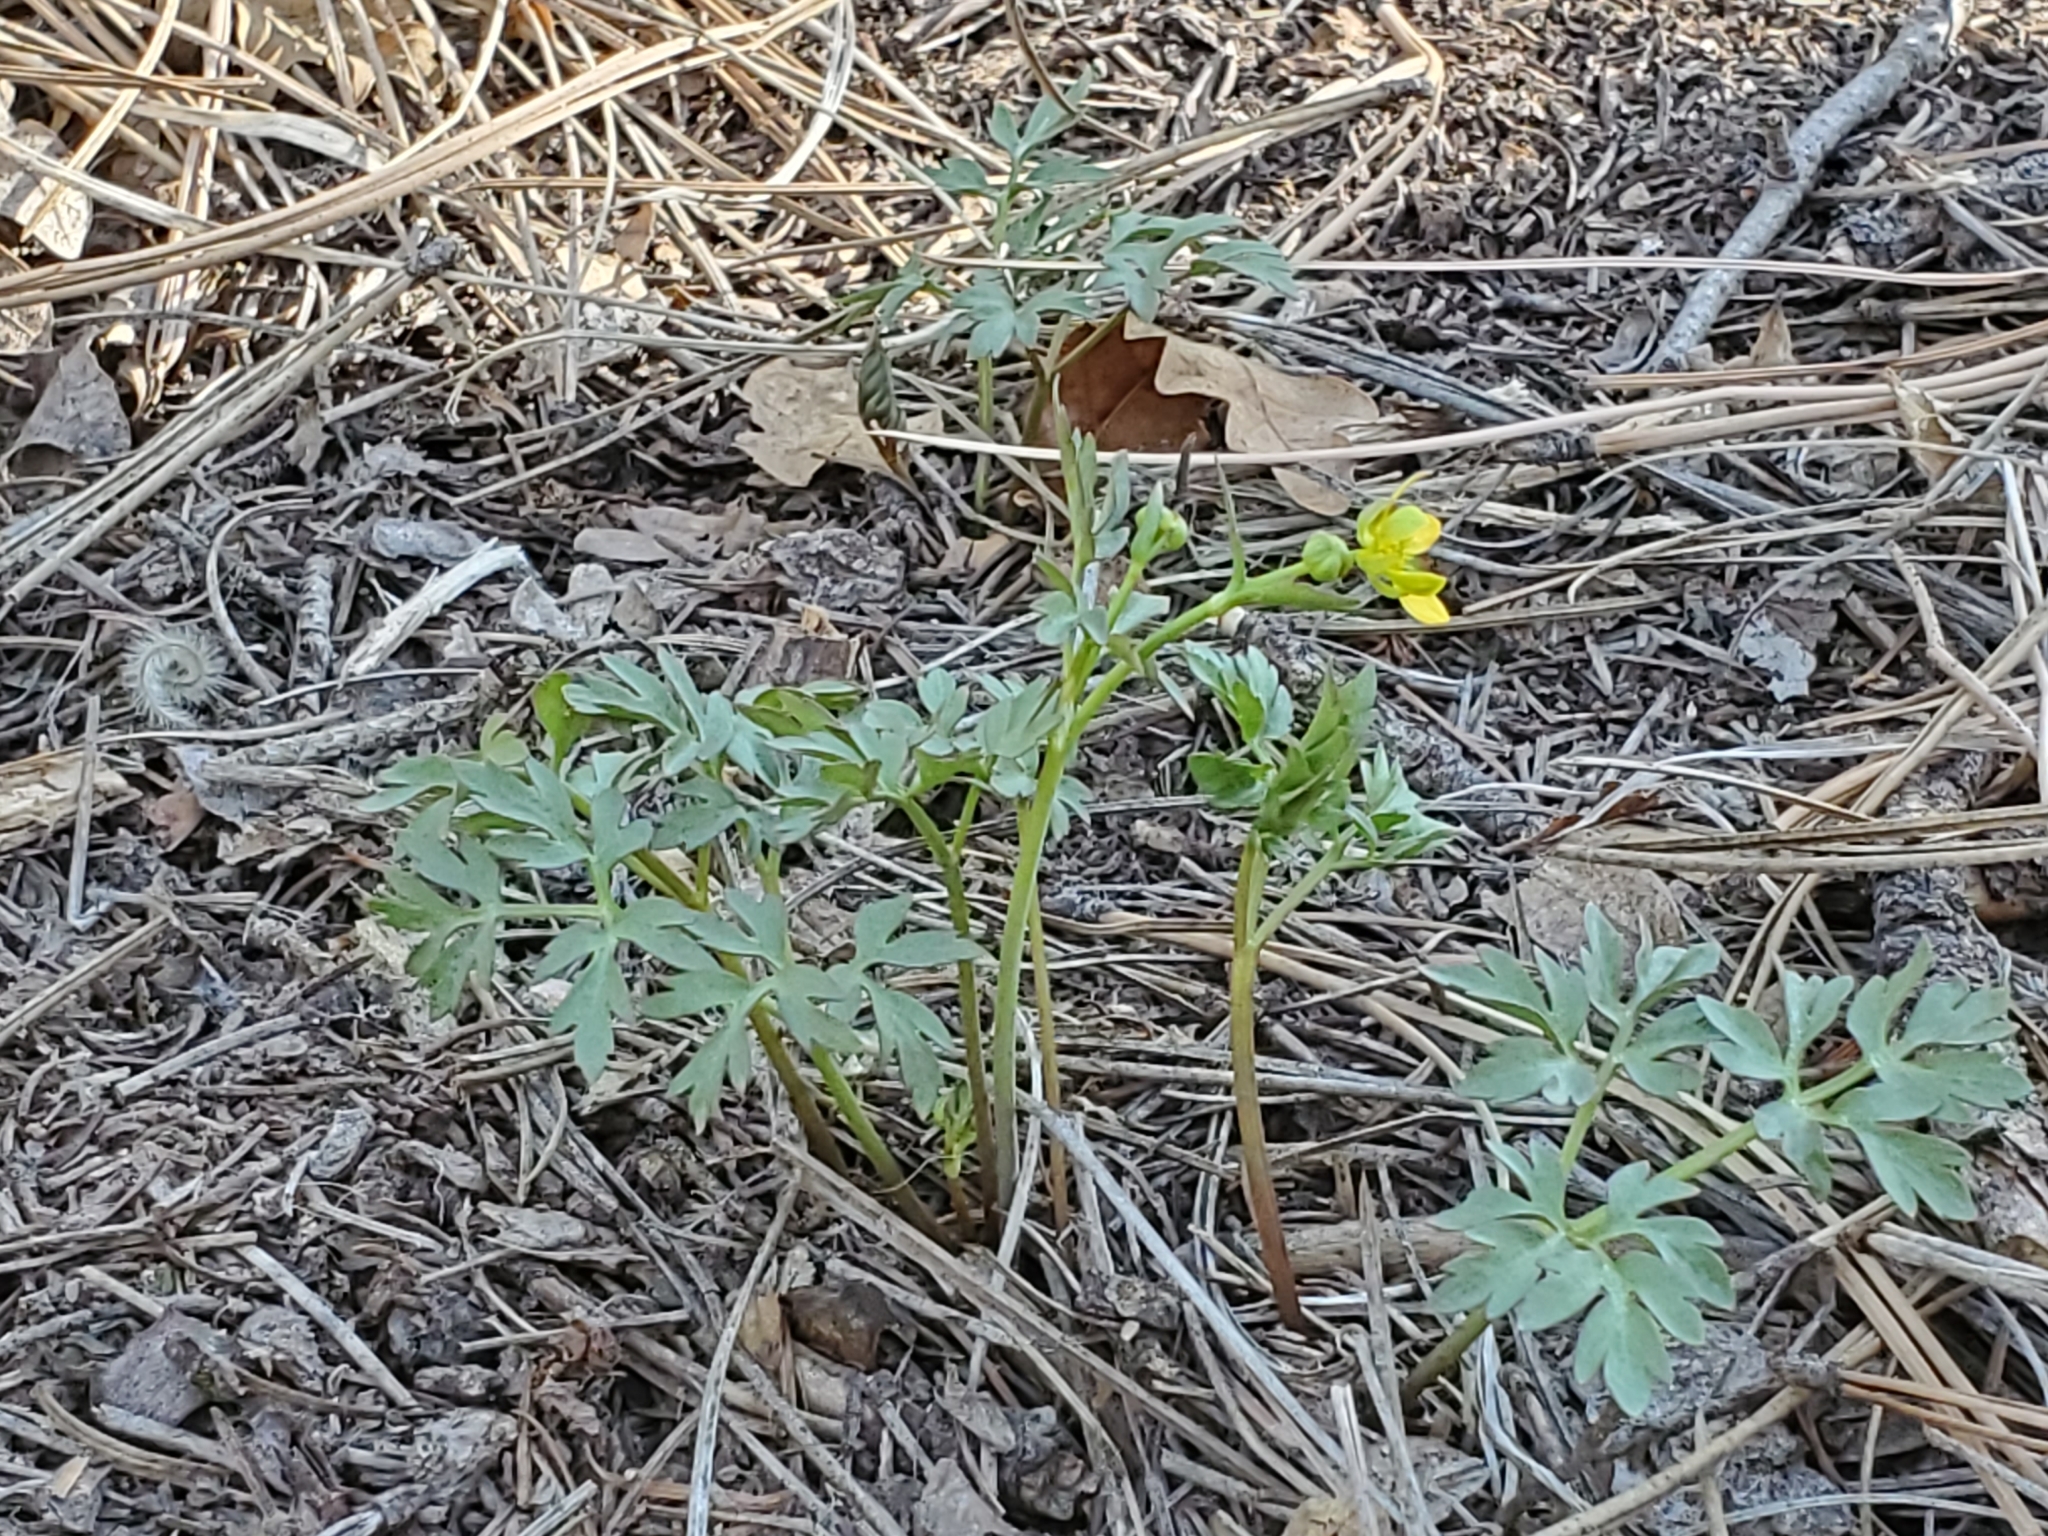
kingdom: Plantae
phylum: Tracheophyta
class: Magnoliopsida
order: Ranunculales
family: Ranunculaceae
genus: Cyrtorhyncha
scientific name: Cyrtorhyncha ranunculina
